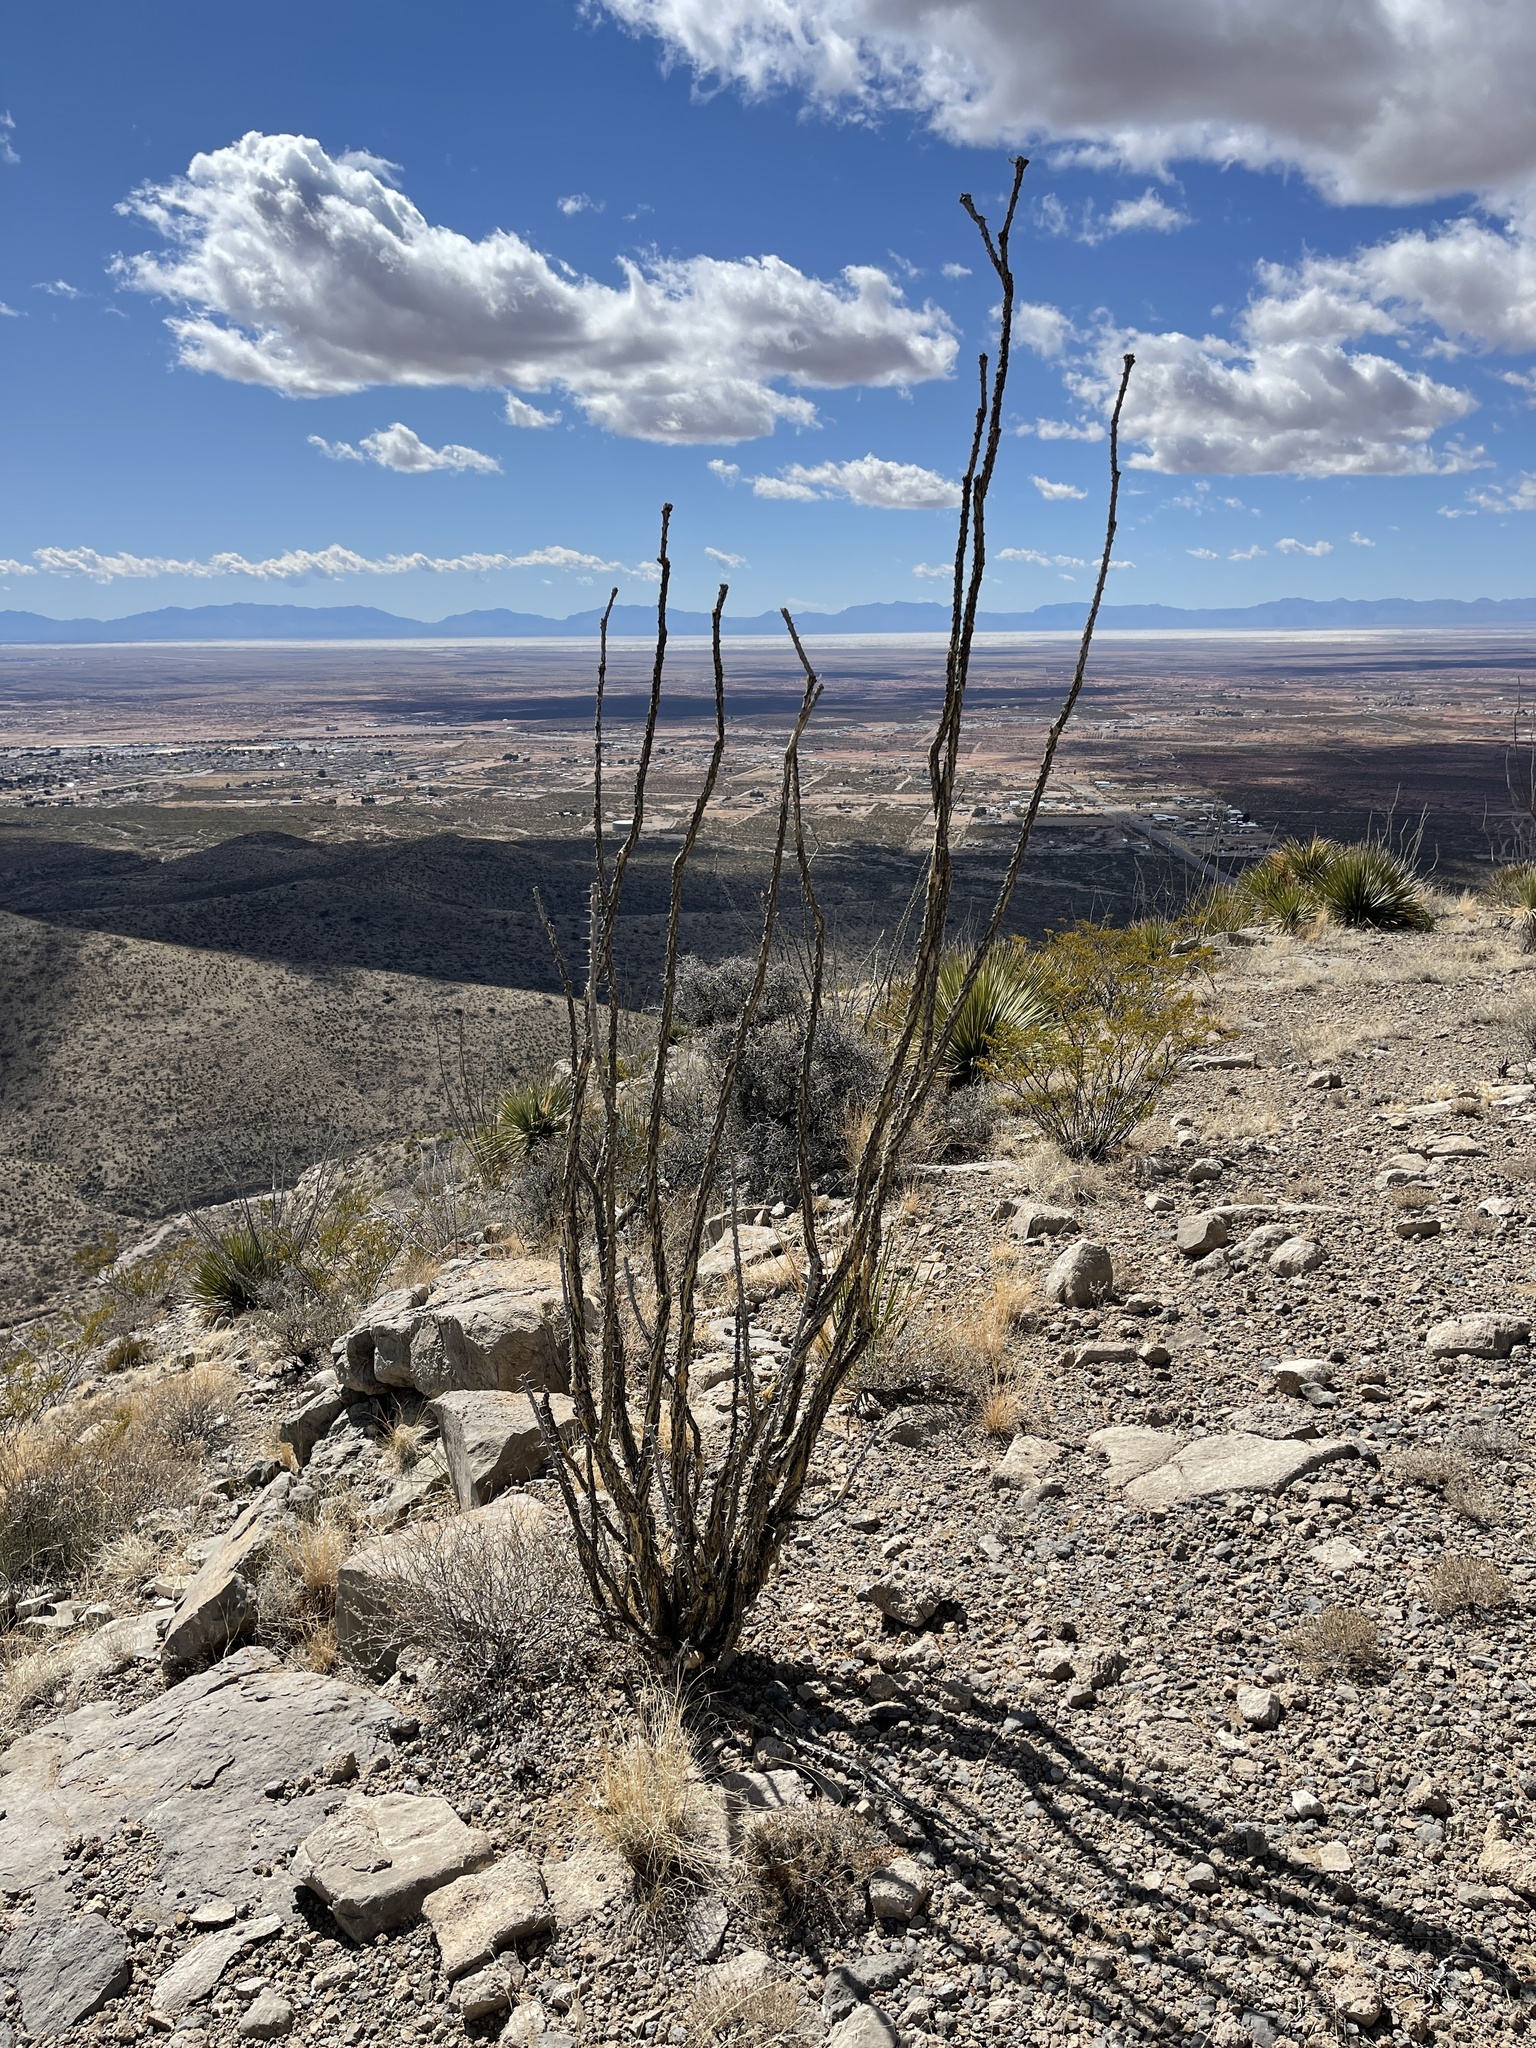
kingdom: Plantae
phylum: Tracheophyta
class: Magnoliopsida
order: Ericales
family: Fouquieriaceae
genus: Fouquieria
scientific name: Fouquieria splendens
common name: Vine-cactus
